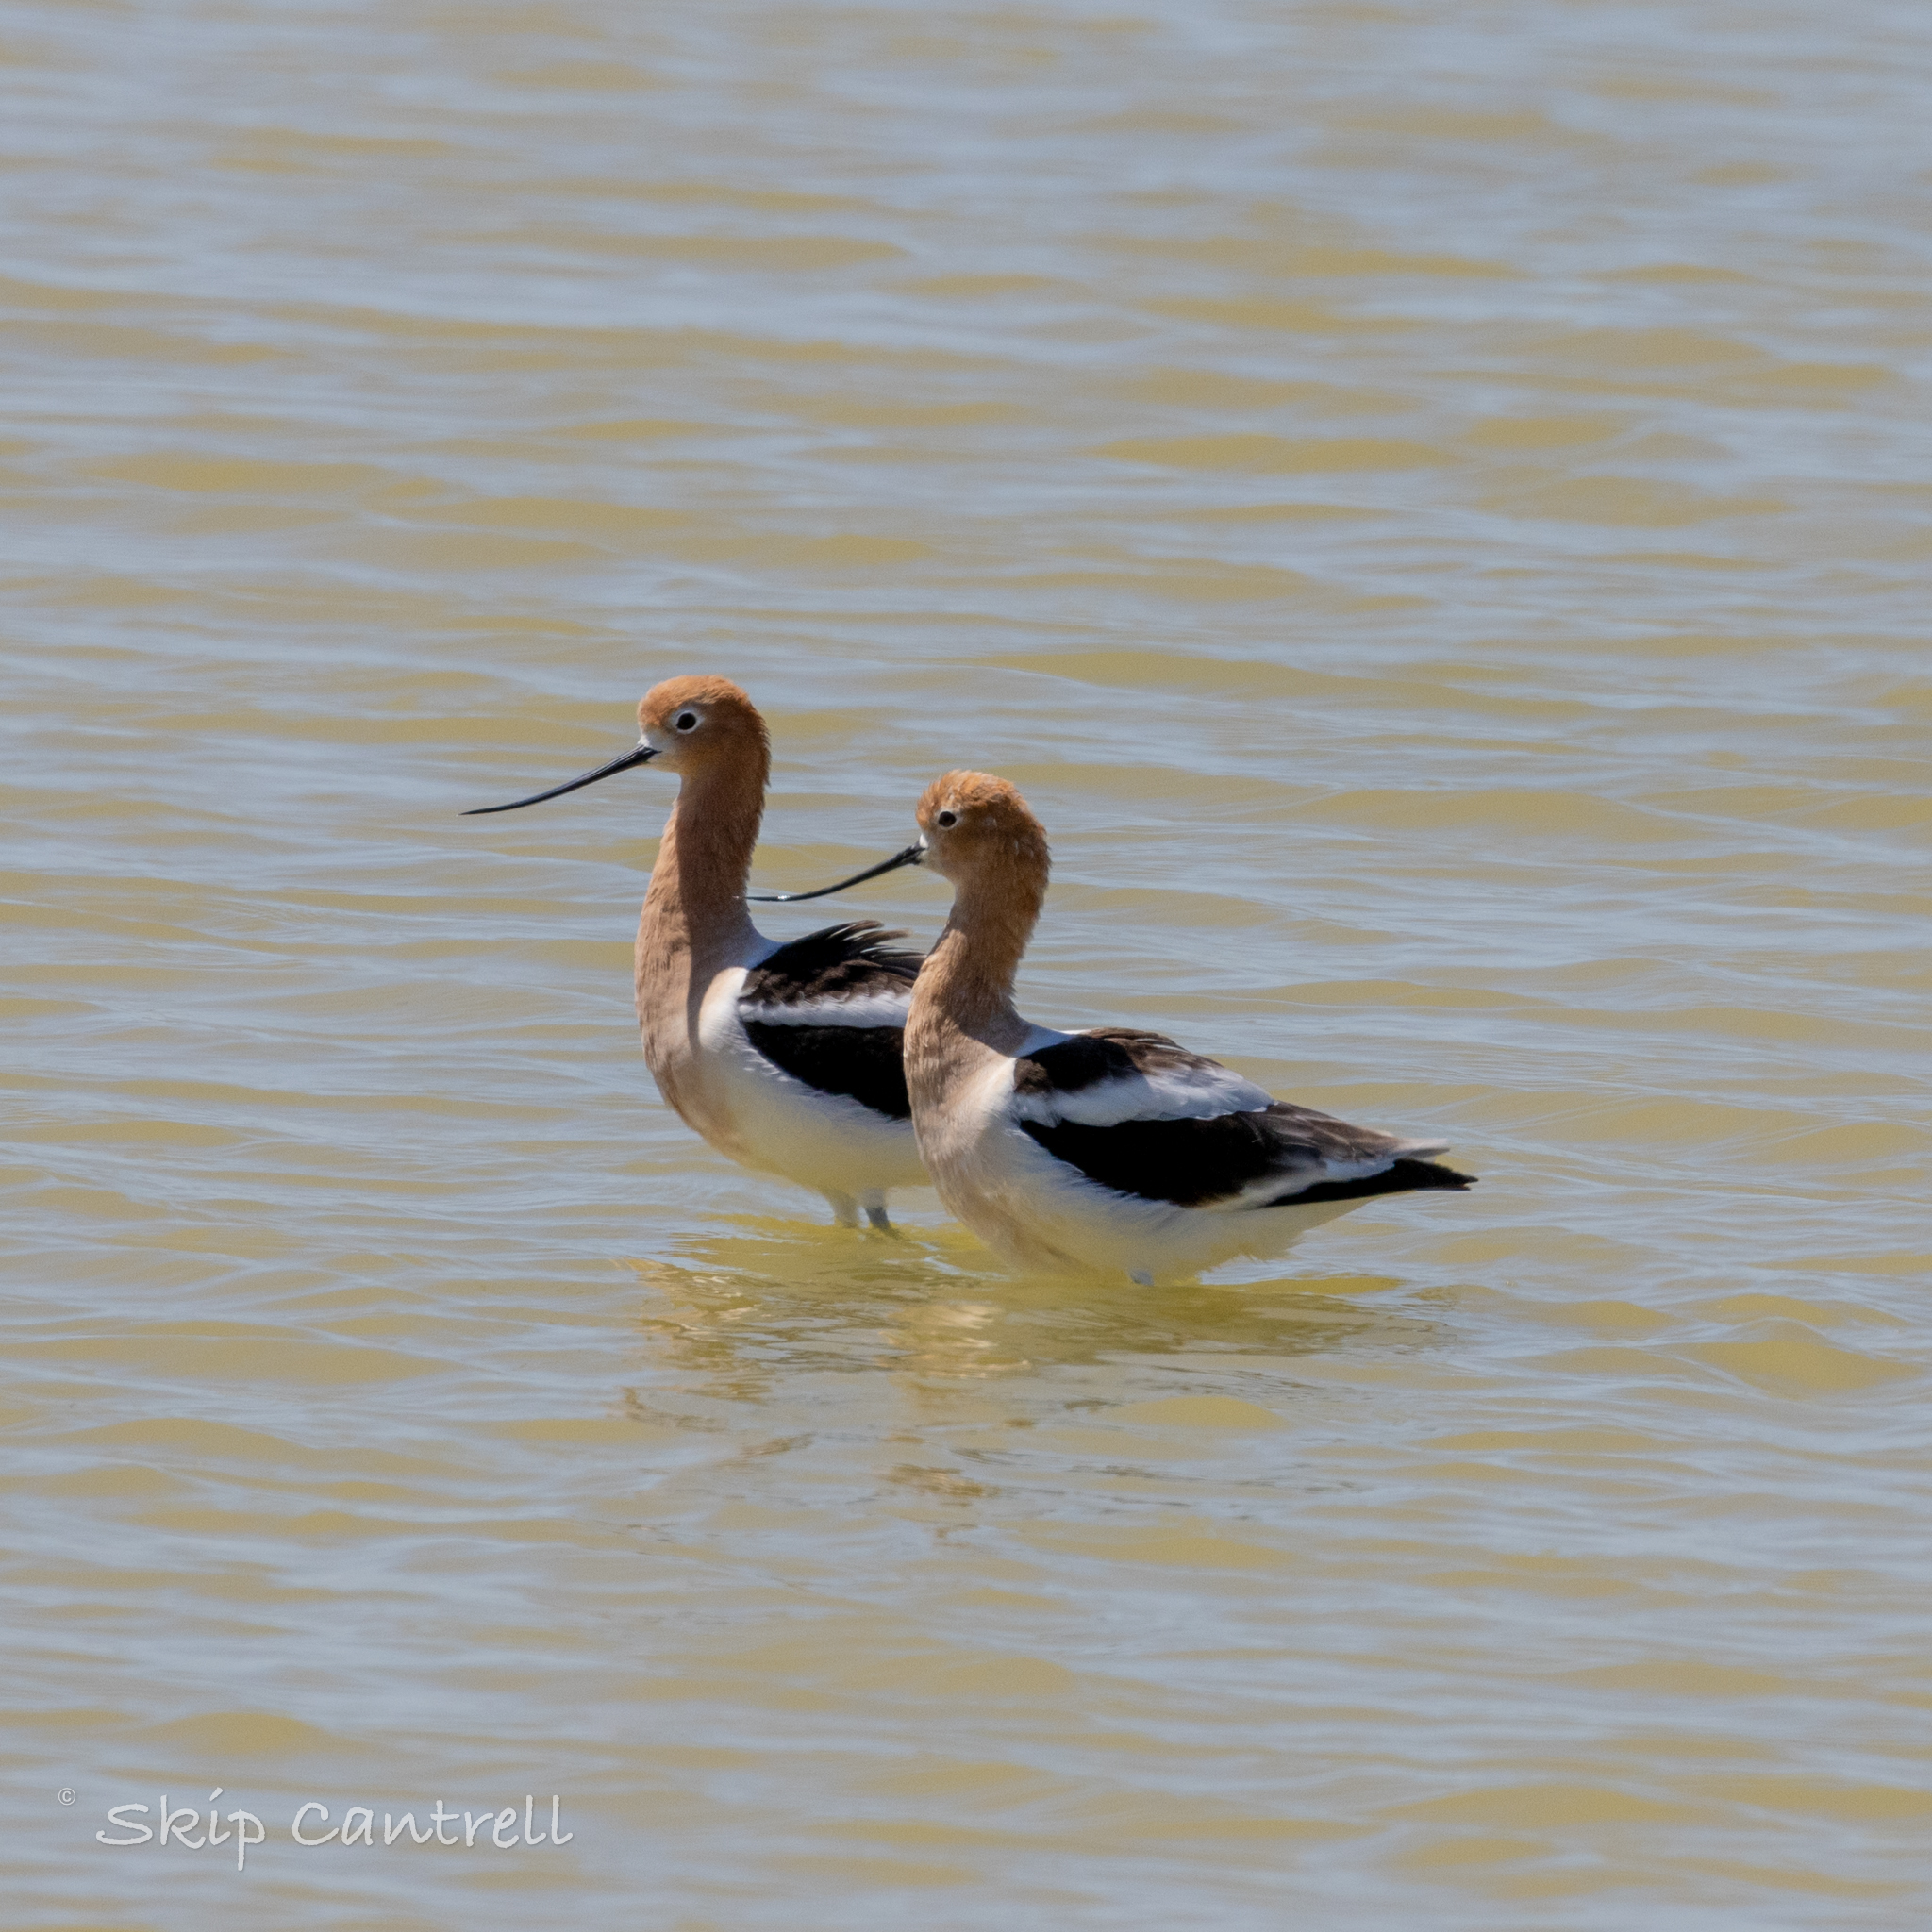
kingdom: Animalia
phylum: Chordata
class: Aves
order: Charadriiformes
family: Recurvirostridae
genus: Recurvirostra
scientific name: Recurvirostra americana
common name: American avocet
